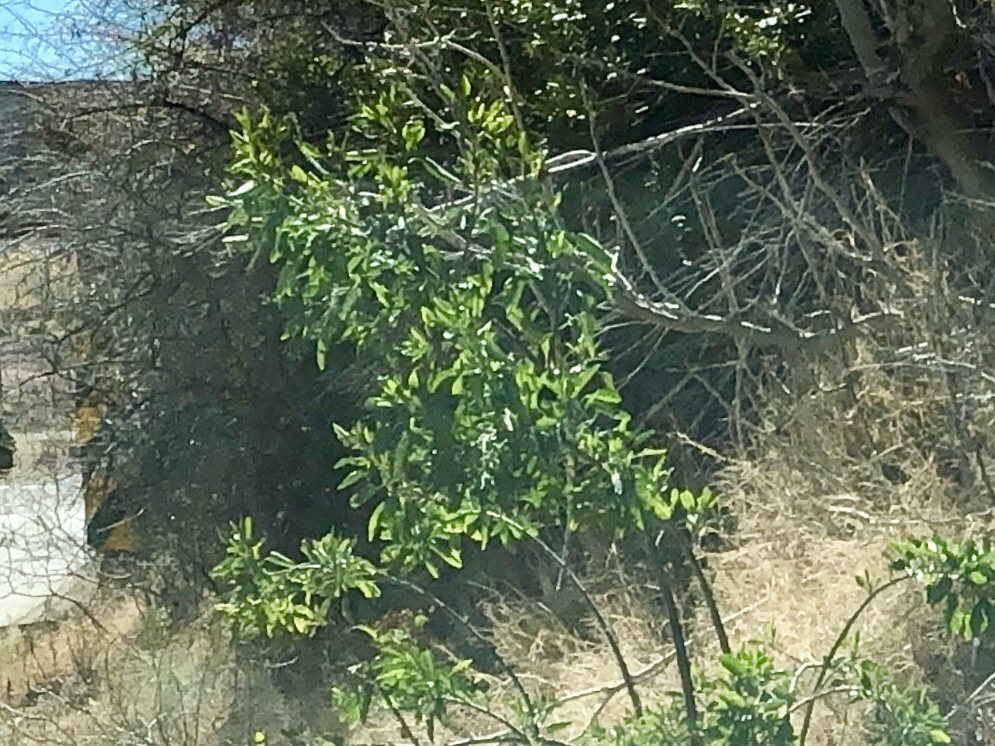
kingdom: Plantae
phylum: Tracheophyta
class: Magnoliopsida
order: Solanales
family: Solanaceae
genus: Nicotiana
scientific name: Nicotiana glauca
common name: Tree tobacco
